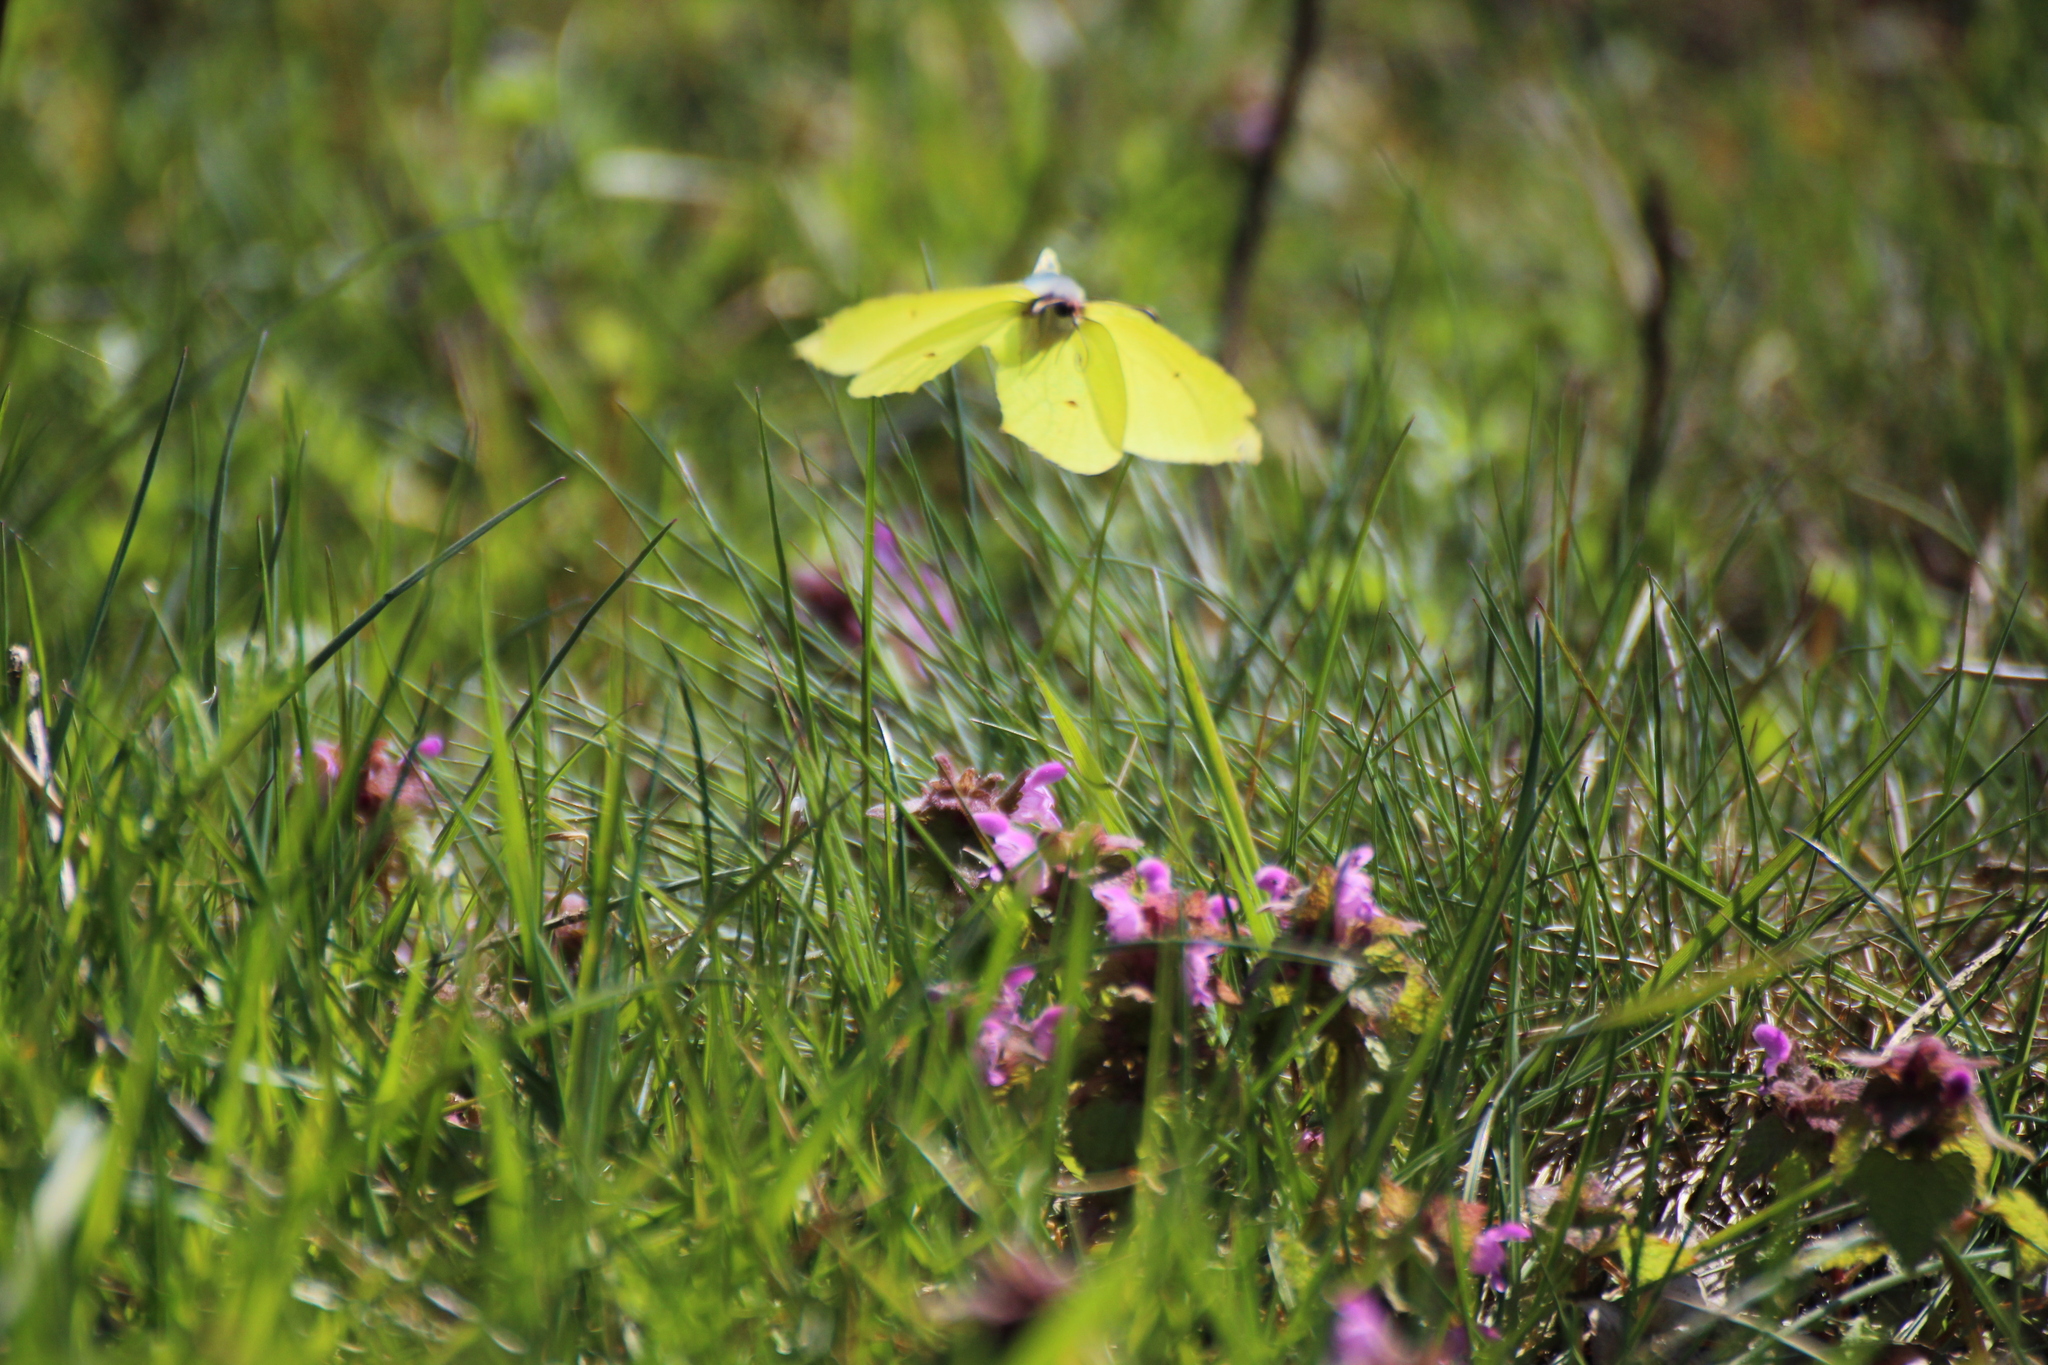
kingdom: Animalia
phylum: Arthropoda
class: Insecta
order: Lepidoptera
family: Pieridae
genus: Gonepteryx
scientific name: Gonepteryx rhamni
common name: Brimstone
